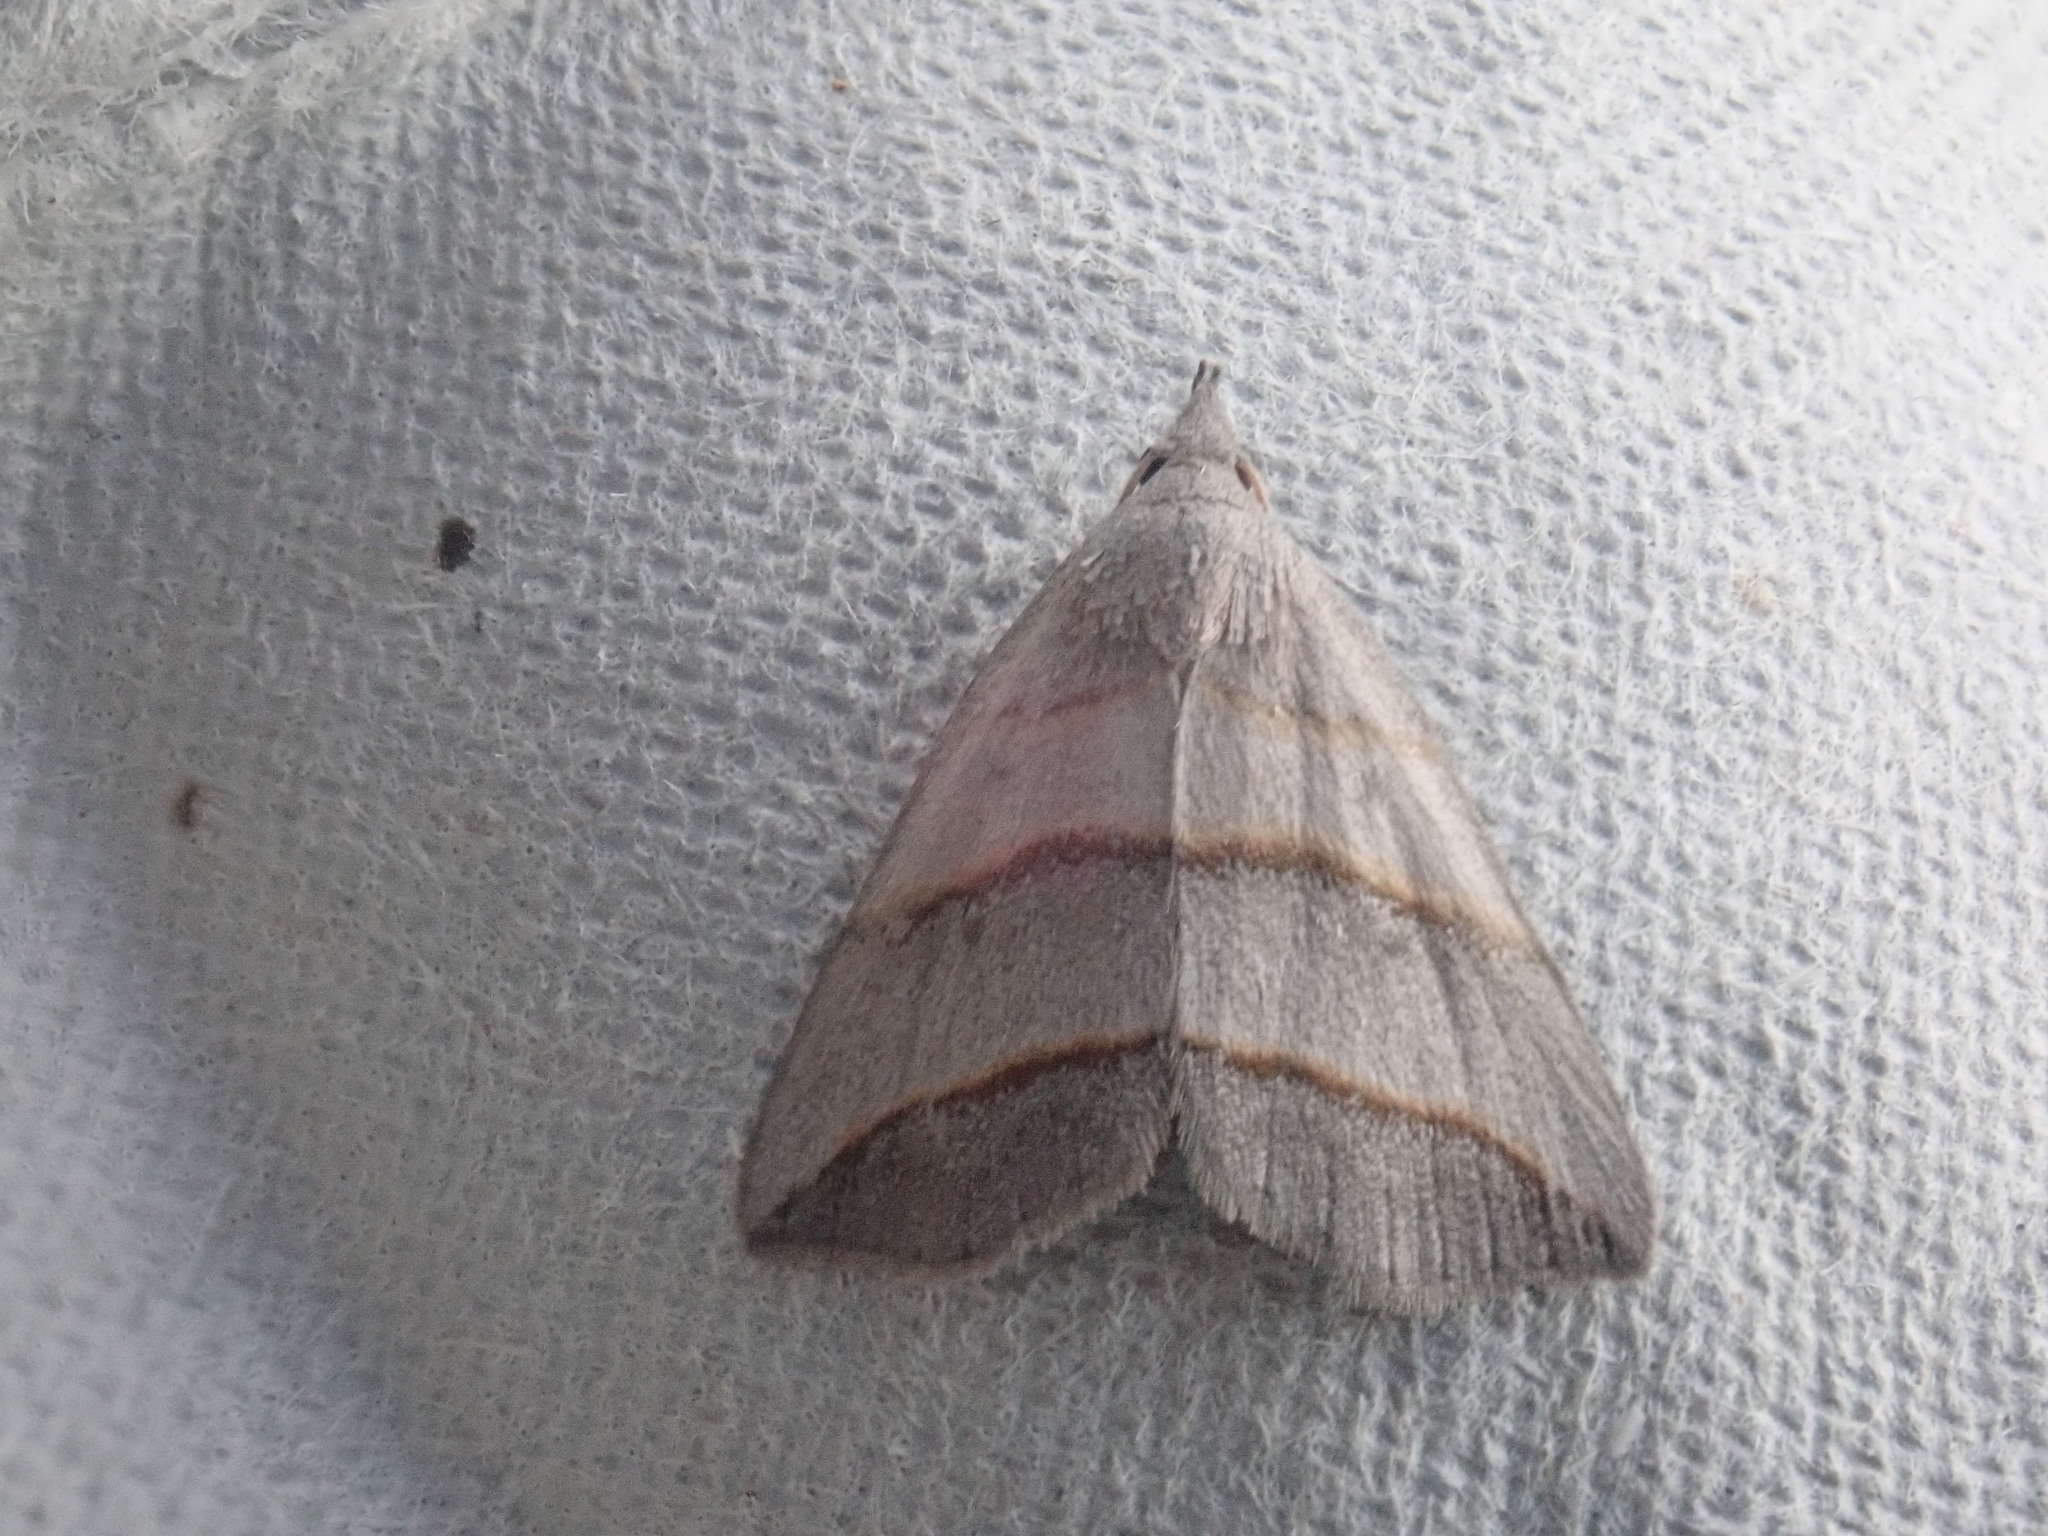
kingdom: Animalia
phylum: Arthropoda
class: Insecta
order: Lepidoptera
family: Erebidae
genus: Colobochyla
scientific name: Colobochyla interpuncta
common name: Yellow-lined owlet
